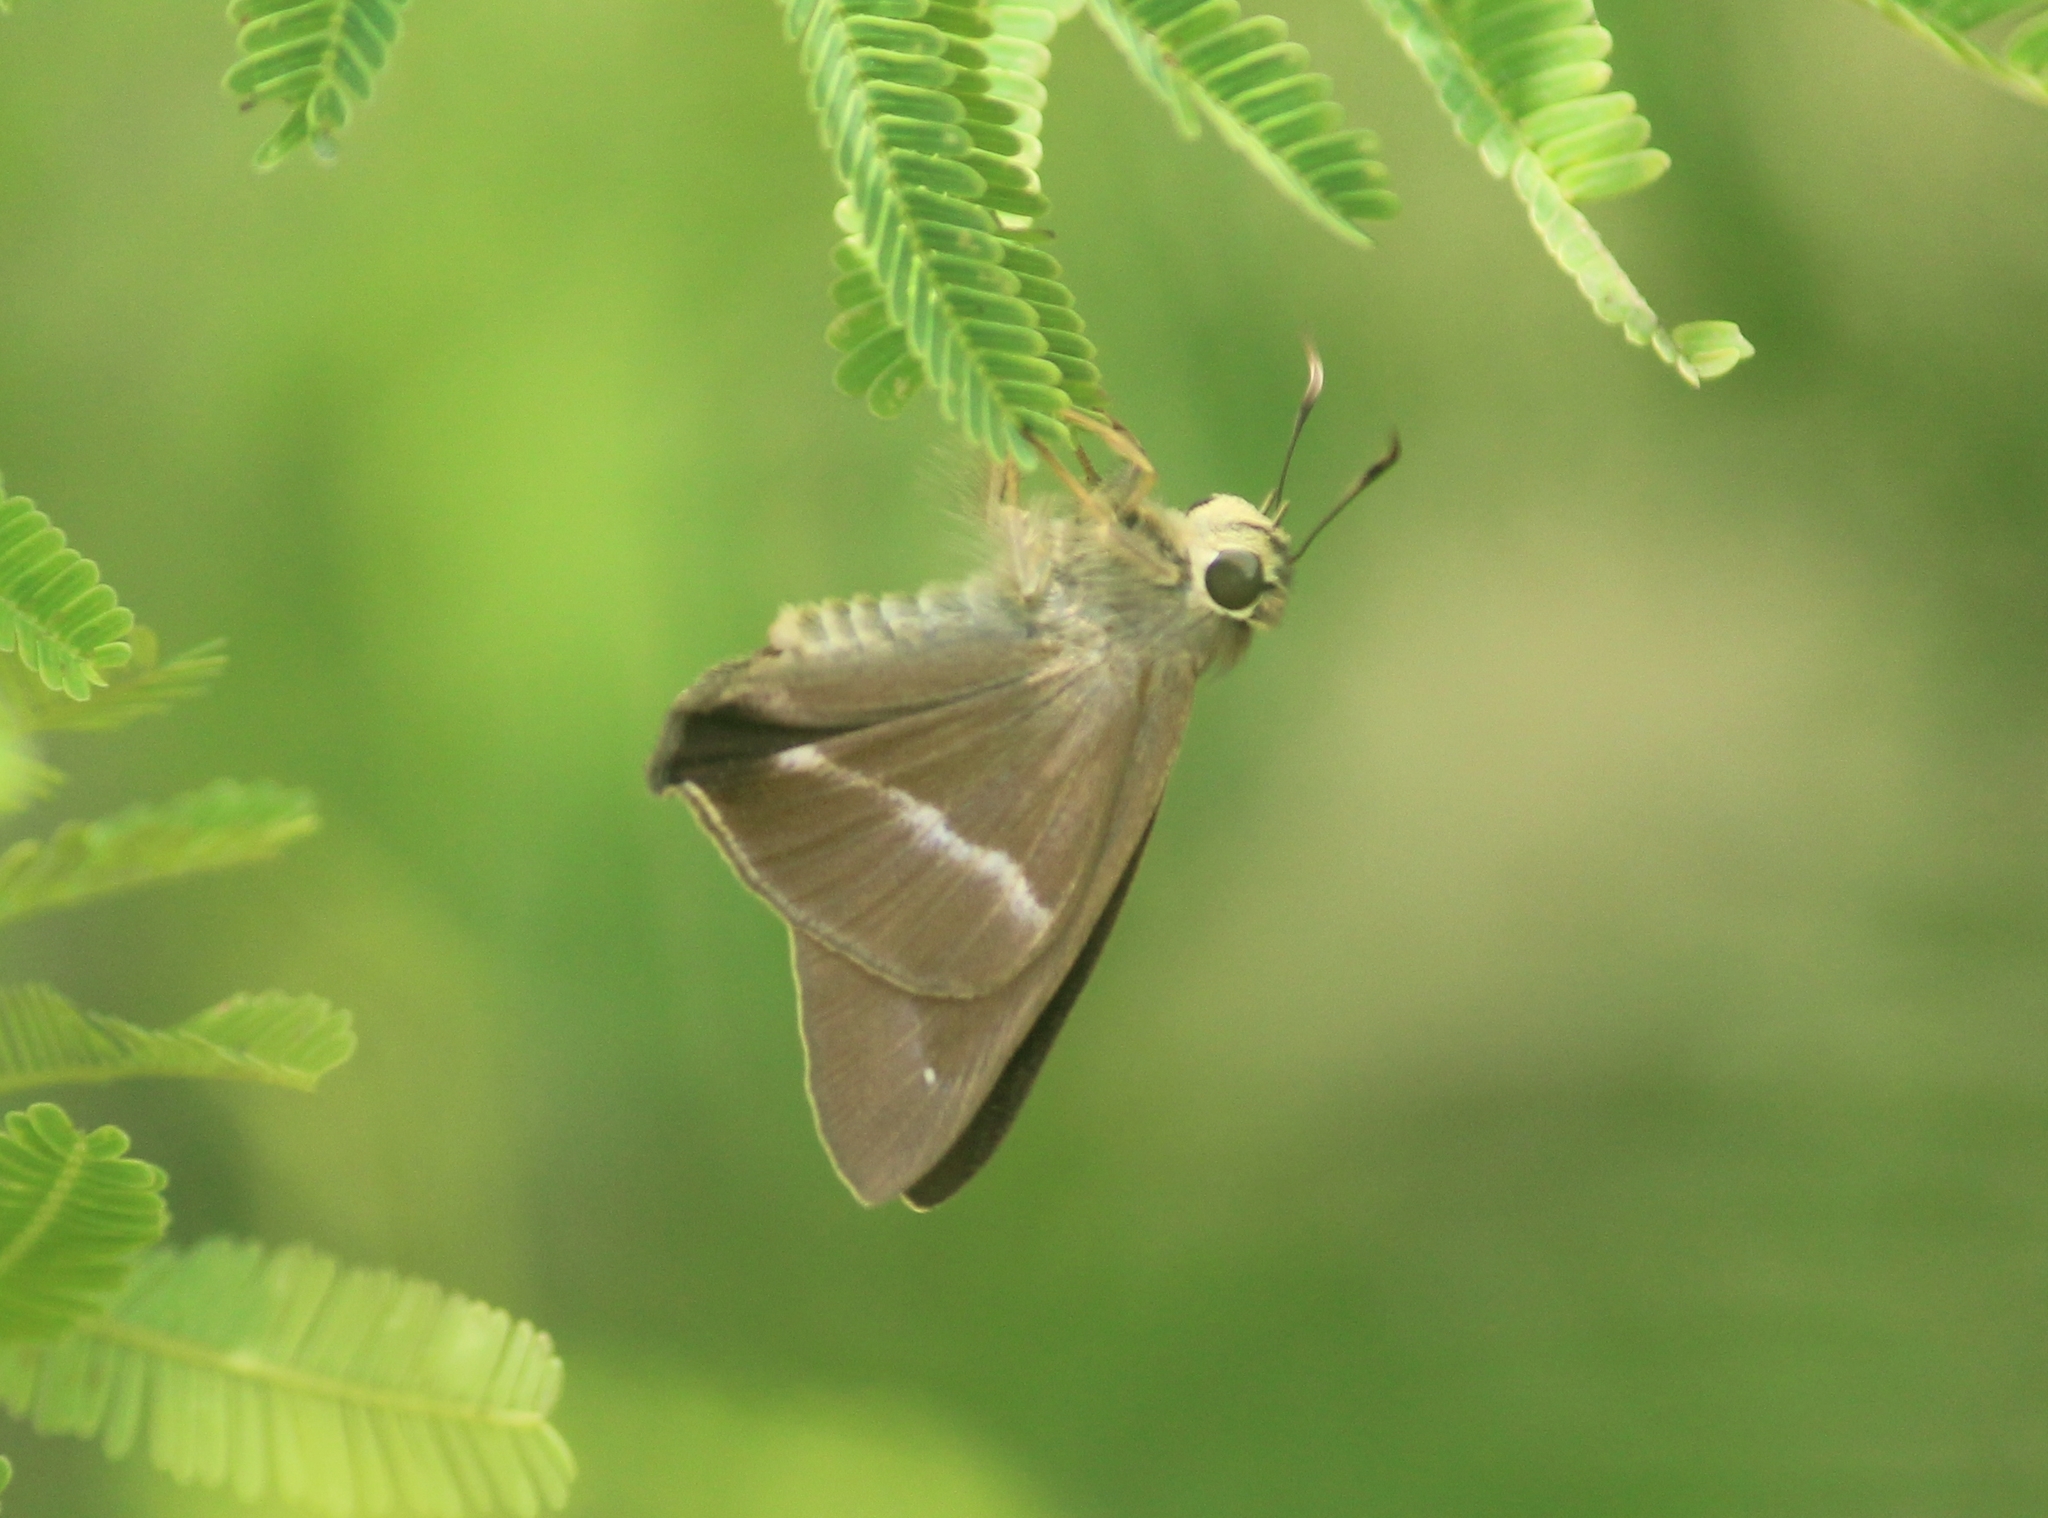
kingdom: Animalia
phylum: Arthropoda
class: Insecta
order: Lepidoptera
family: Hesperiidae
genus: Hasora
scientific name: Hasora chromus
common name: Common banded awl
